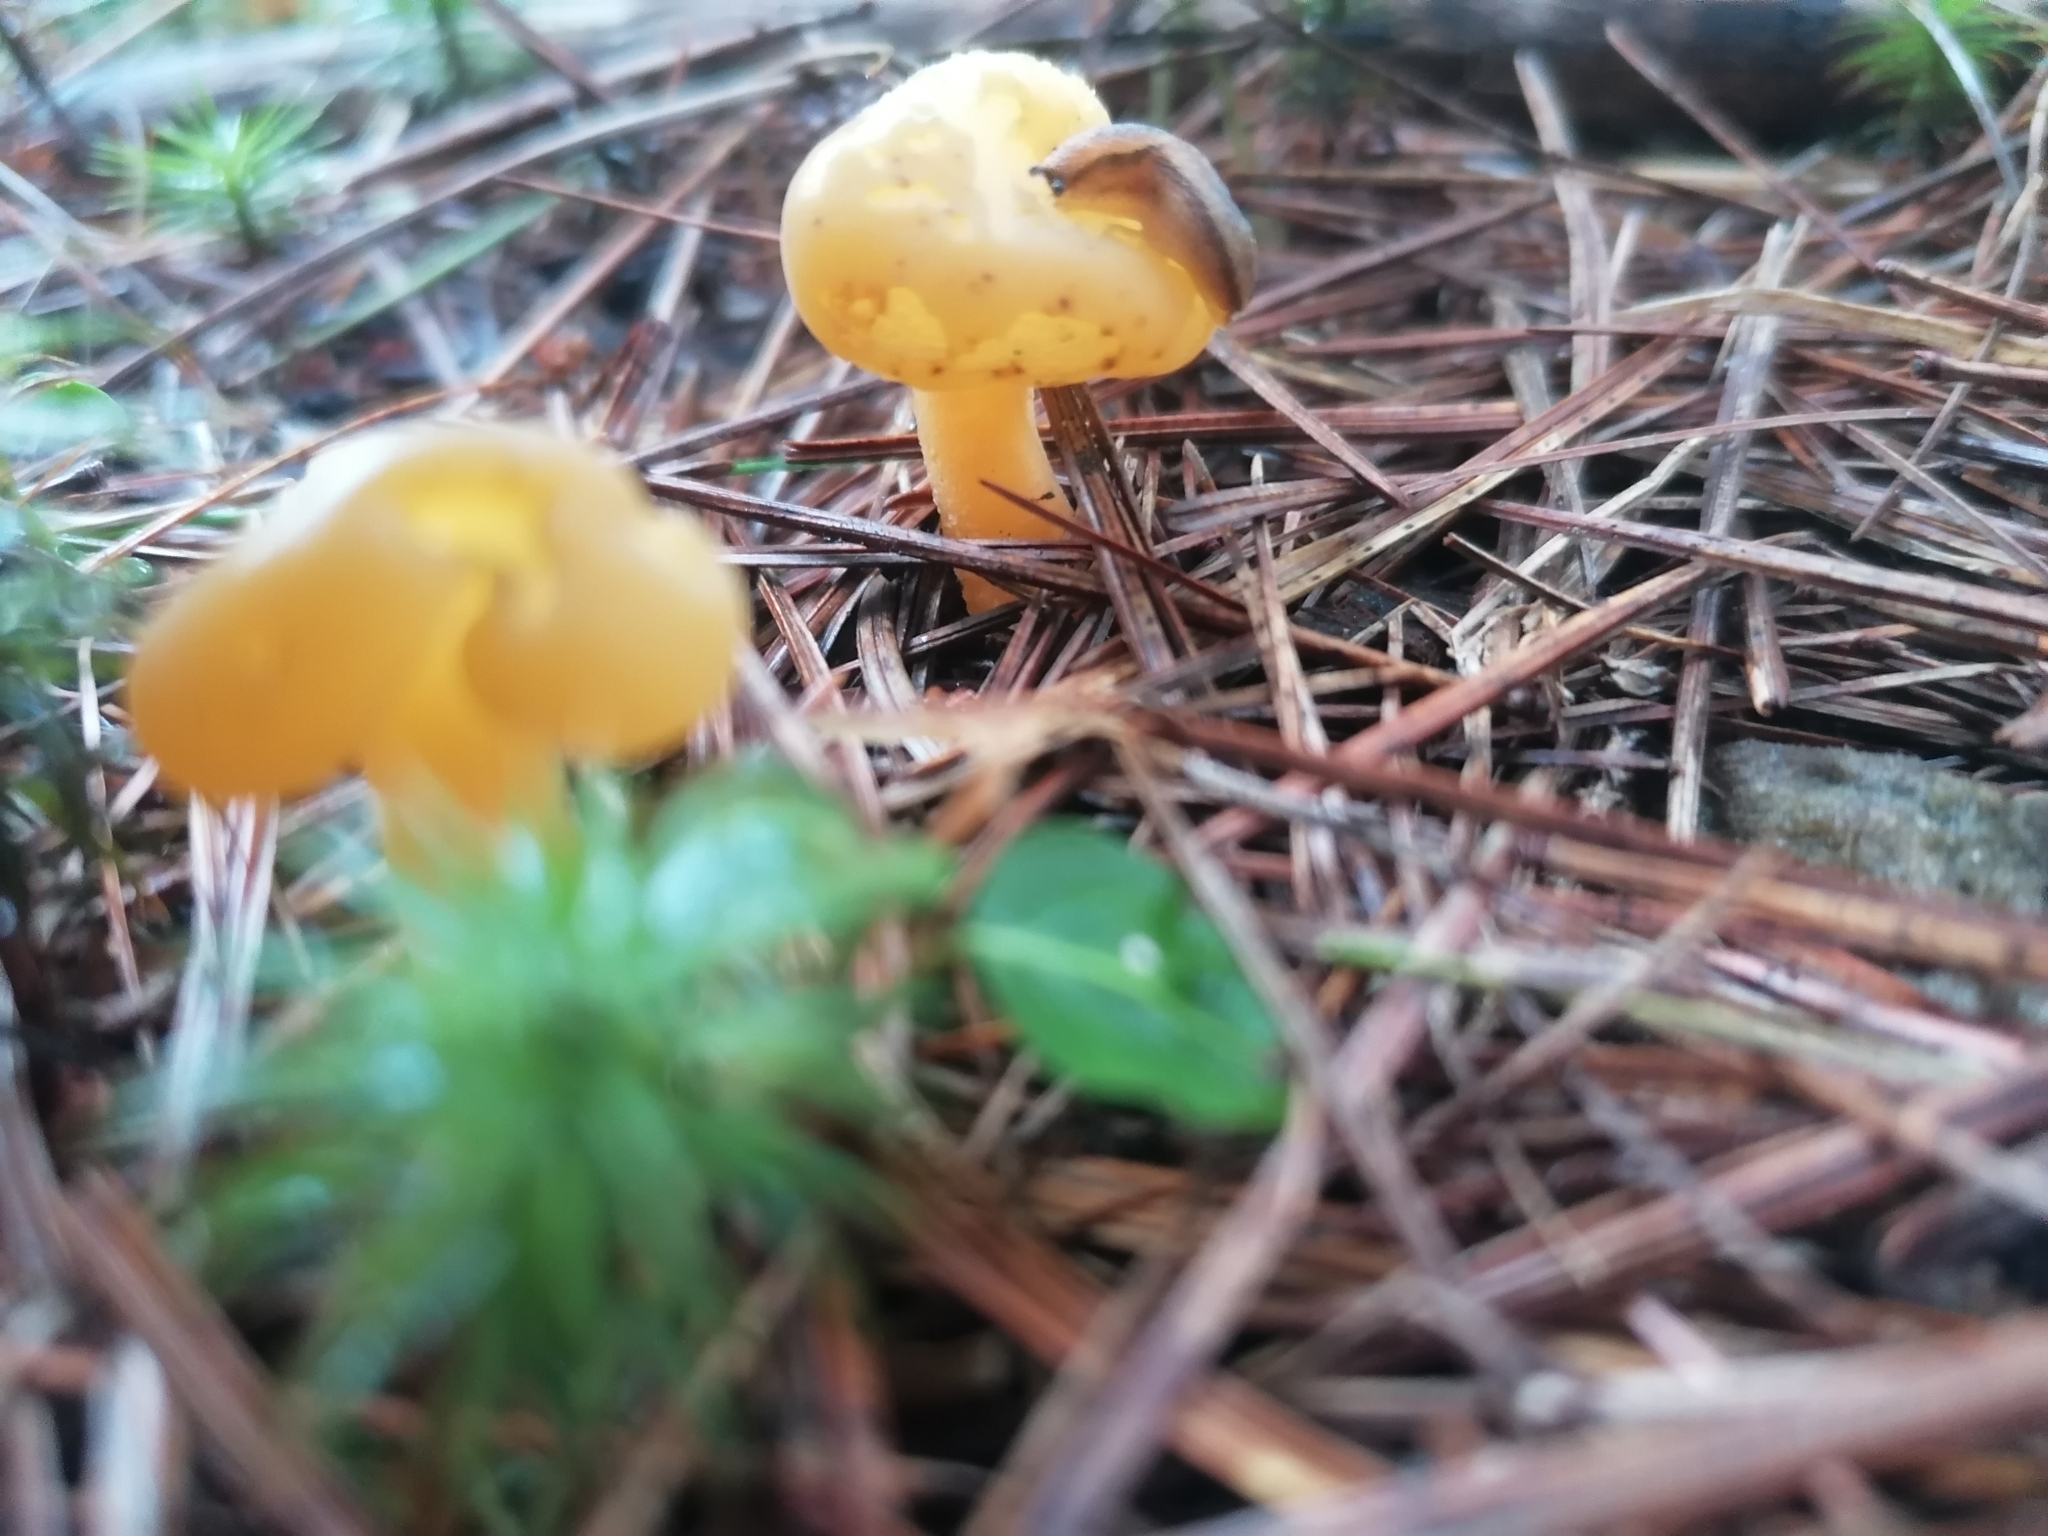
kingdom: Fungi
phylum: Ascomycota
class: Leotiomycetes
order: Leotiales
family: Leotiaceae
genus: Leotia
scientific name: Leotia lubrica
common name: Jellybaby
